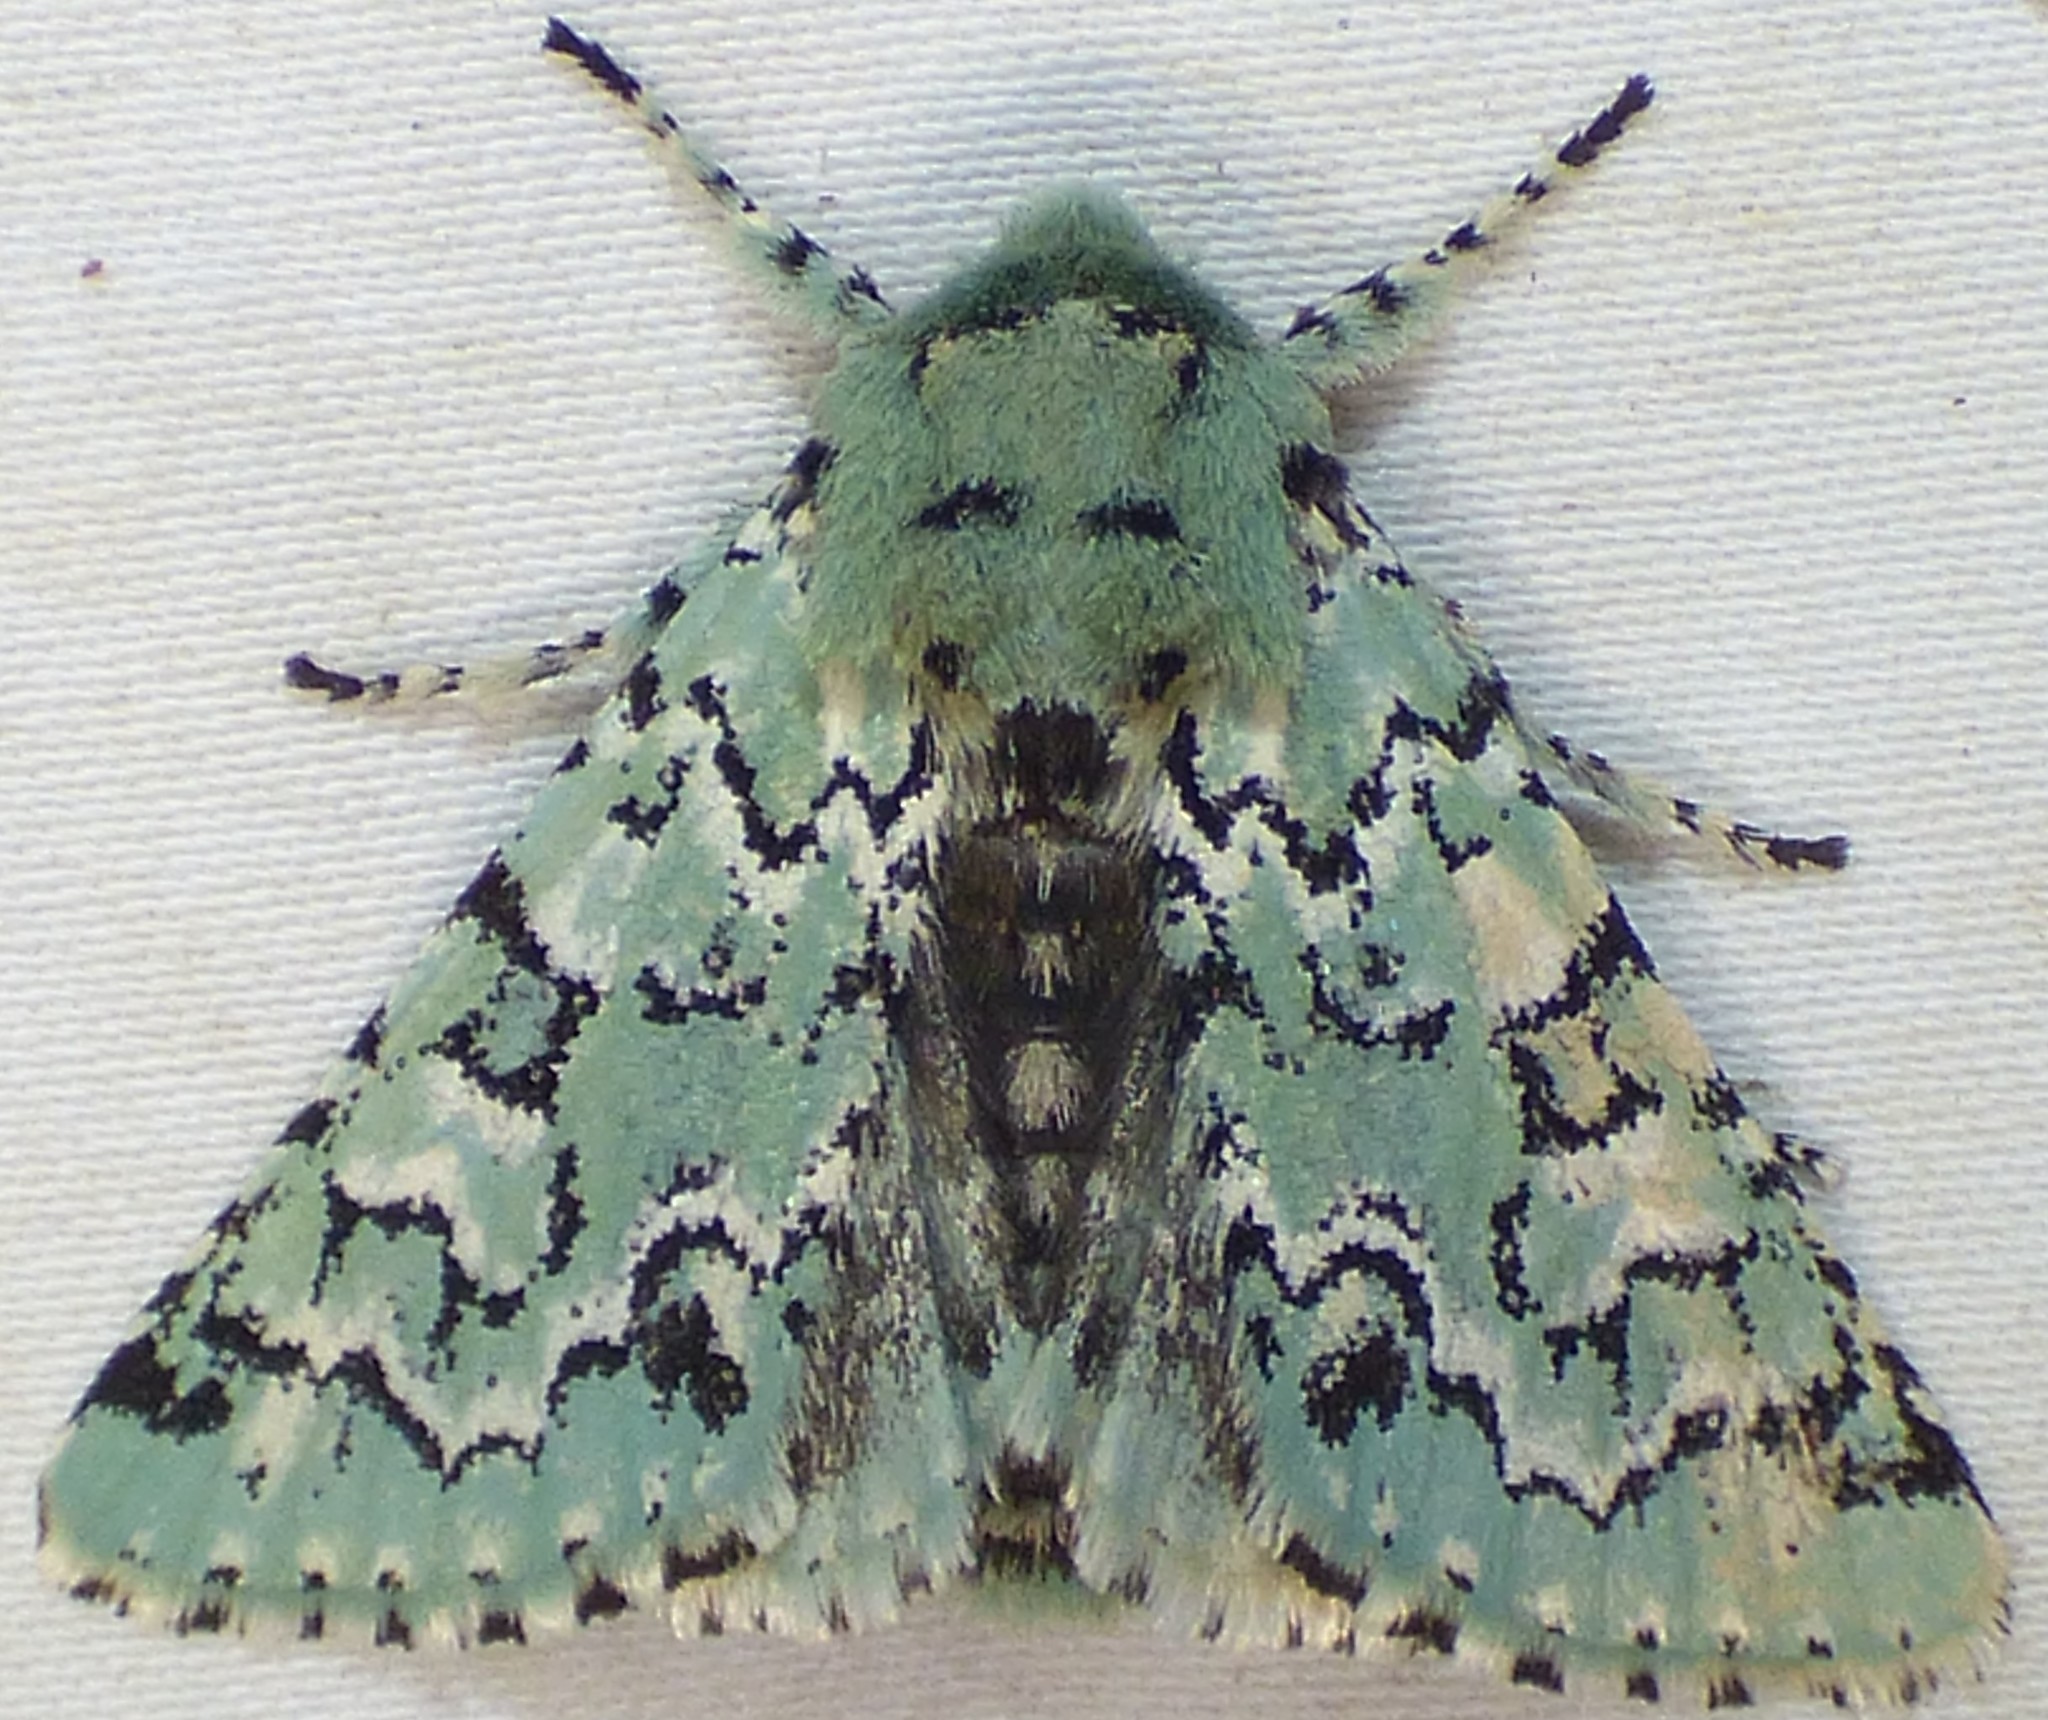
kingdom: Animalia
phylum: Arthropoda
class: Insecta
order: Lepidoptera
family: Noctuidae
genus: Feralia
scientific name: Feralia major
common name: Major sallow
